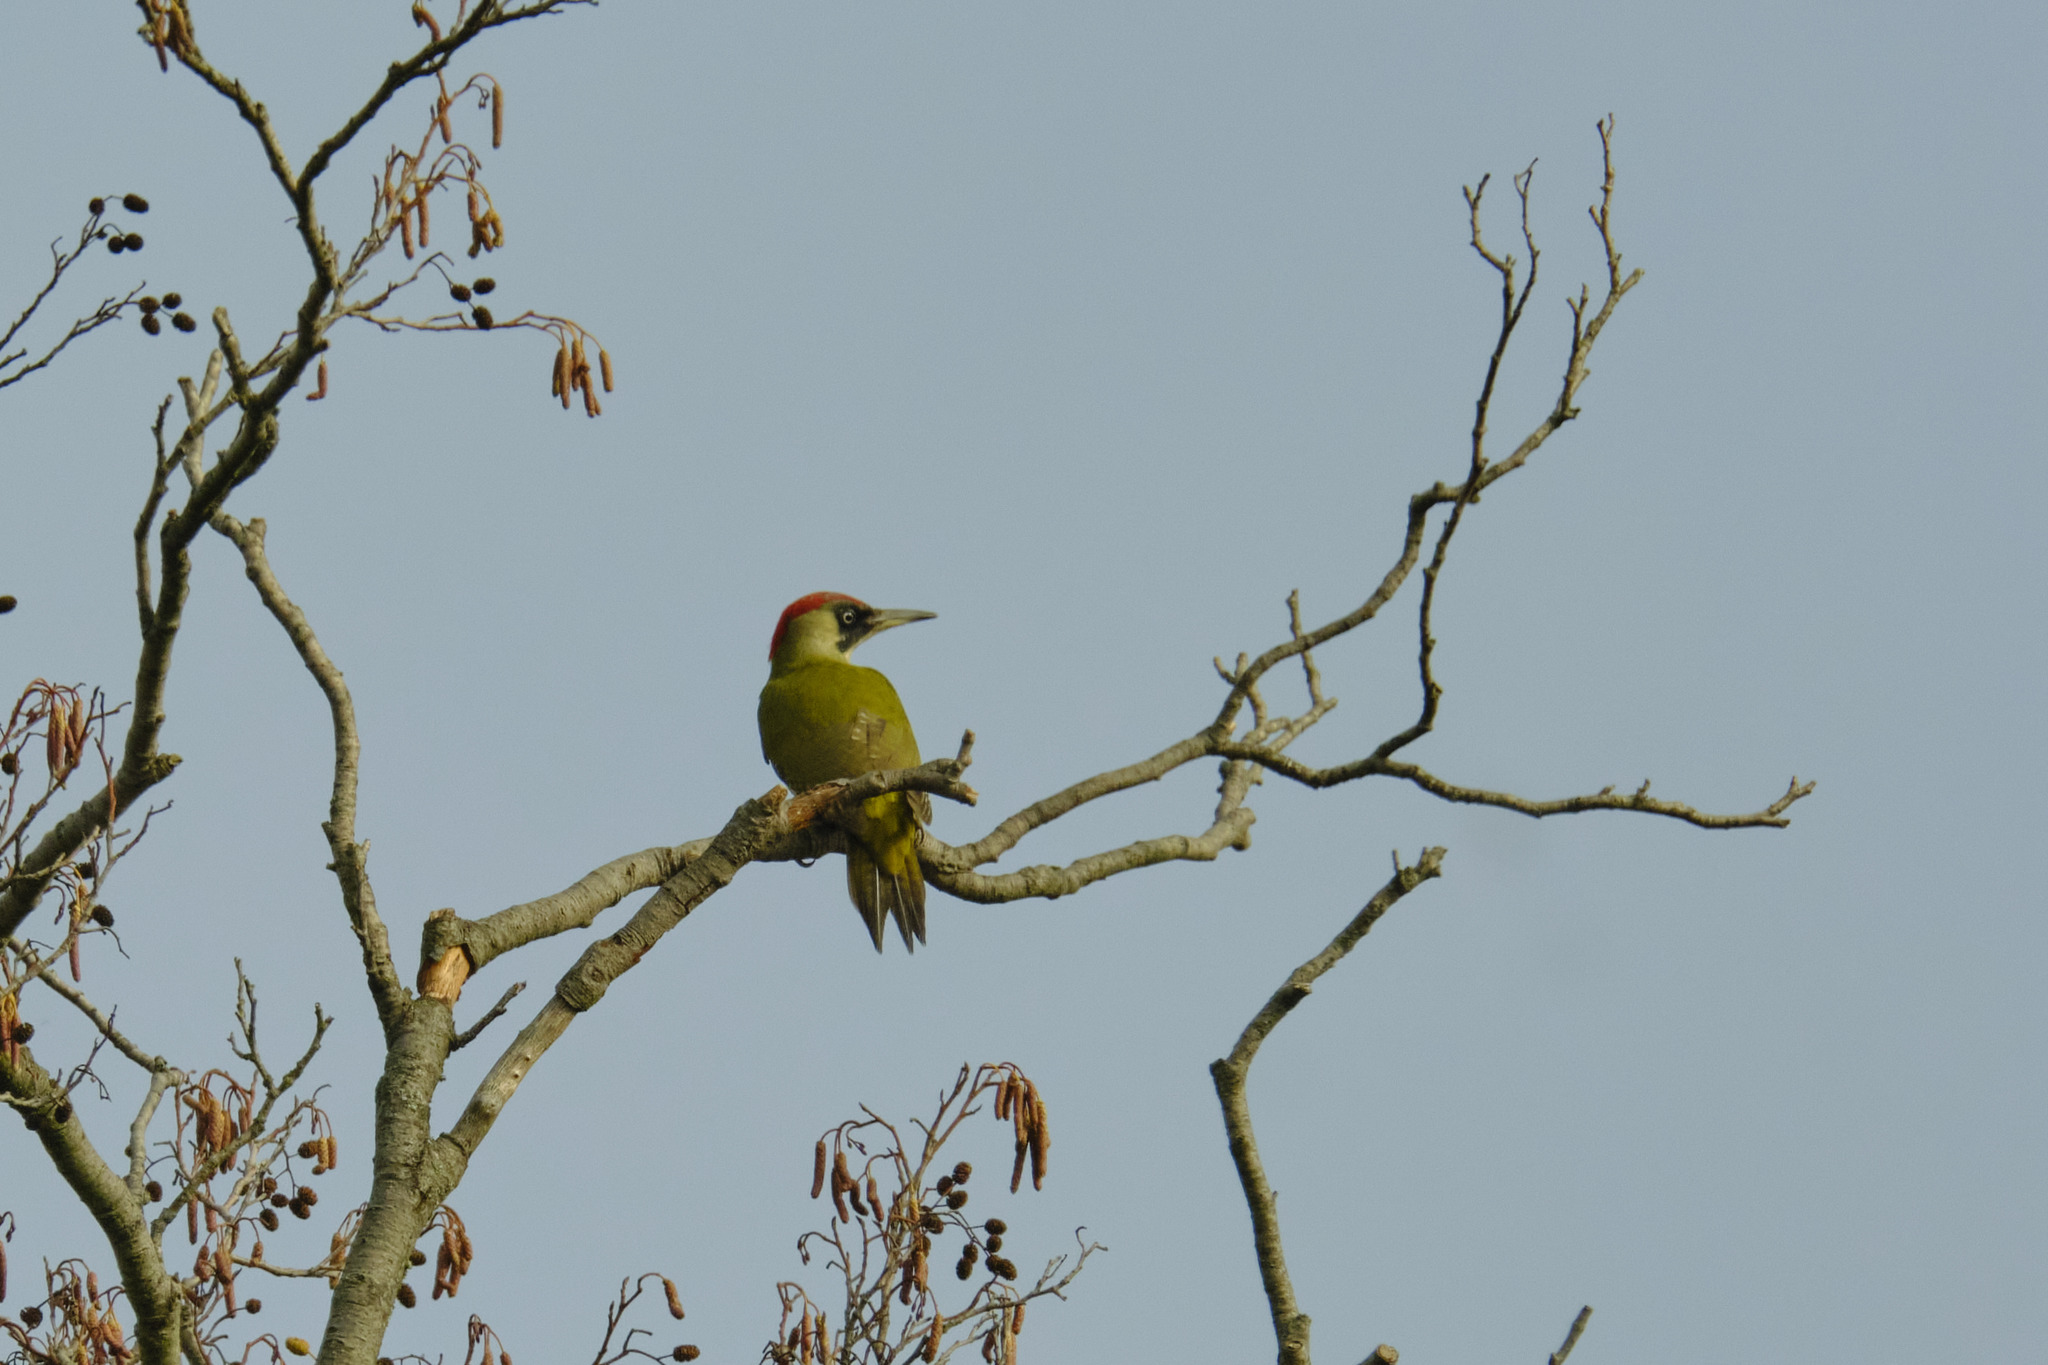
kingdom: Animalia
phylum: Chordata
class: Aves
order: Piciformes
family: Picidae
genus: Picus
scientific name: Picus viridis
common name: European green woodpecker
